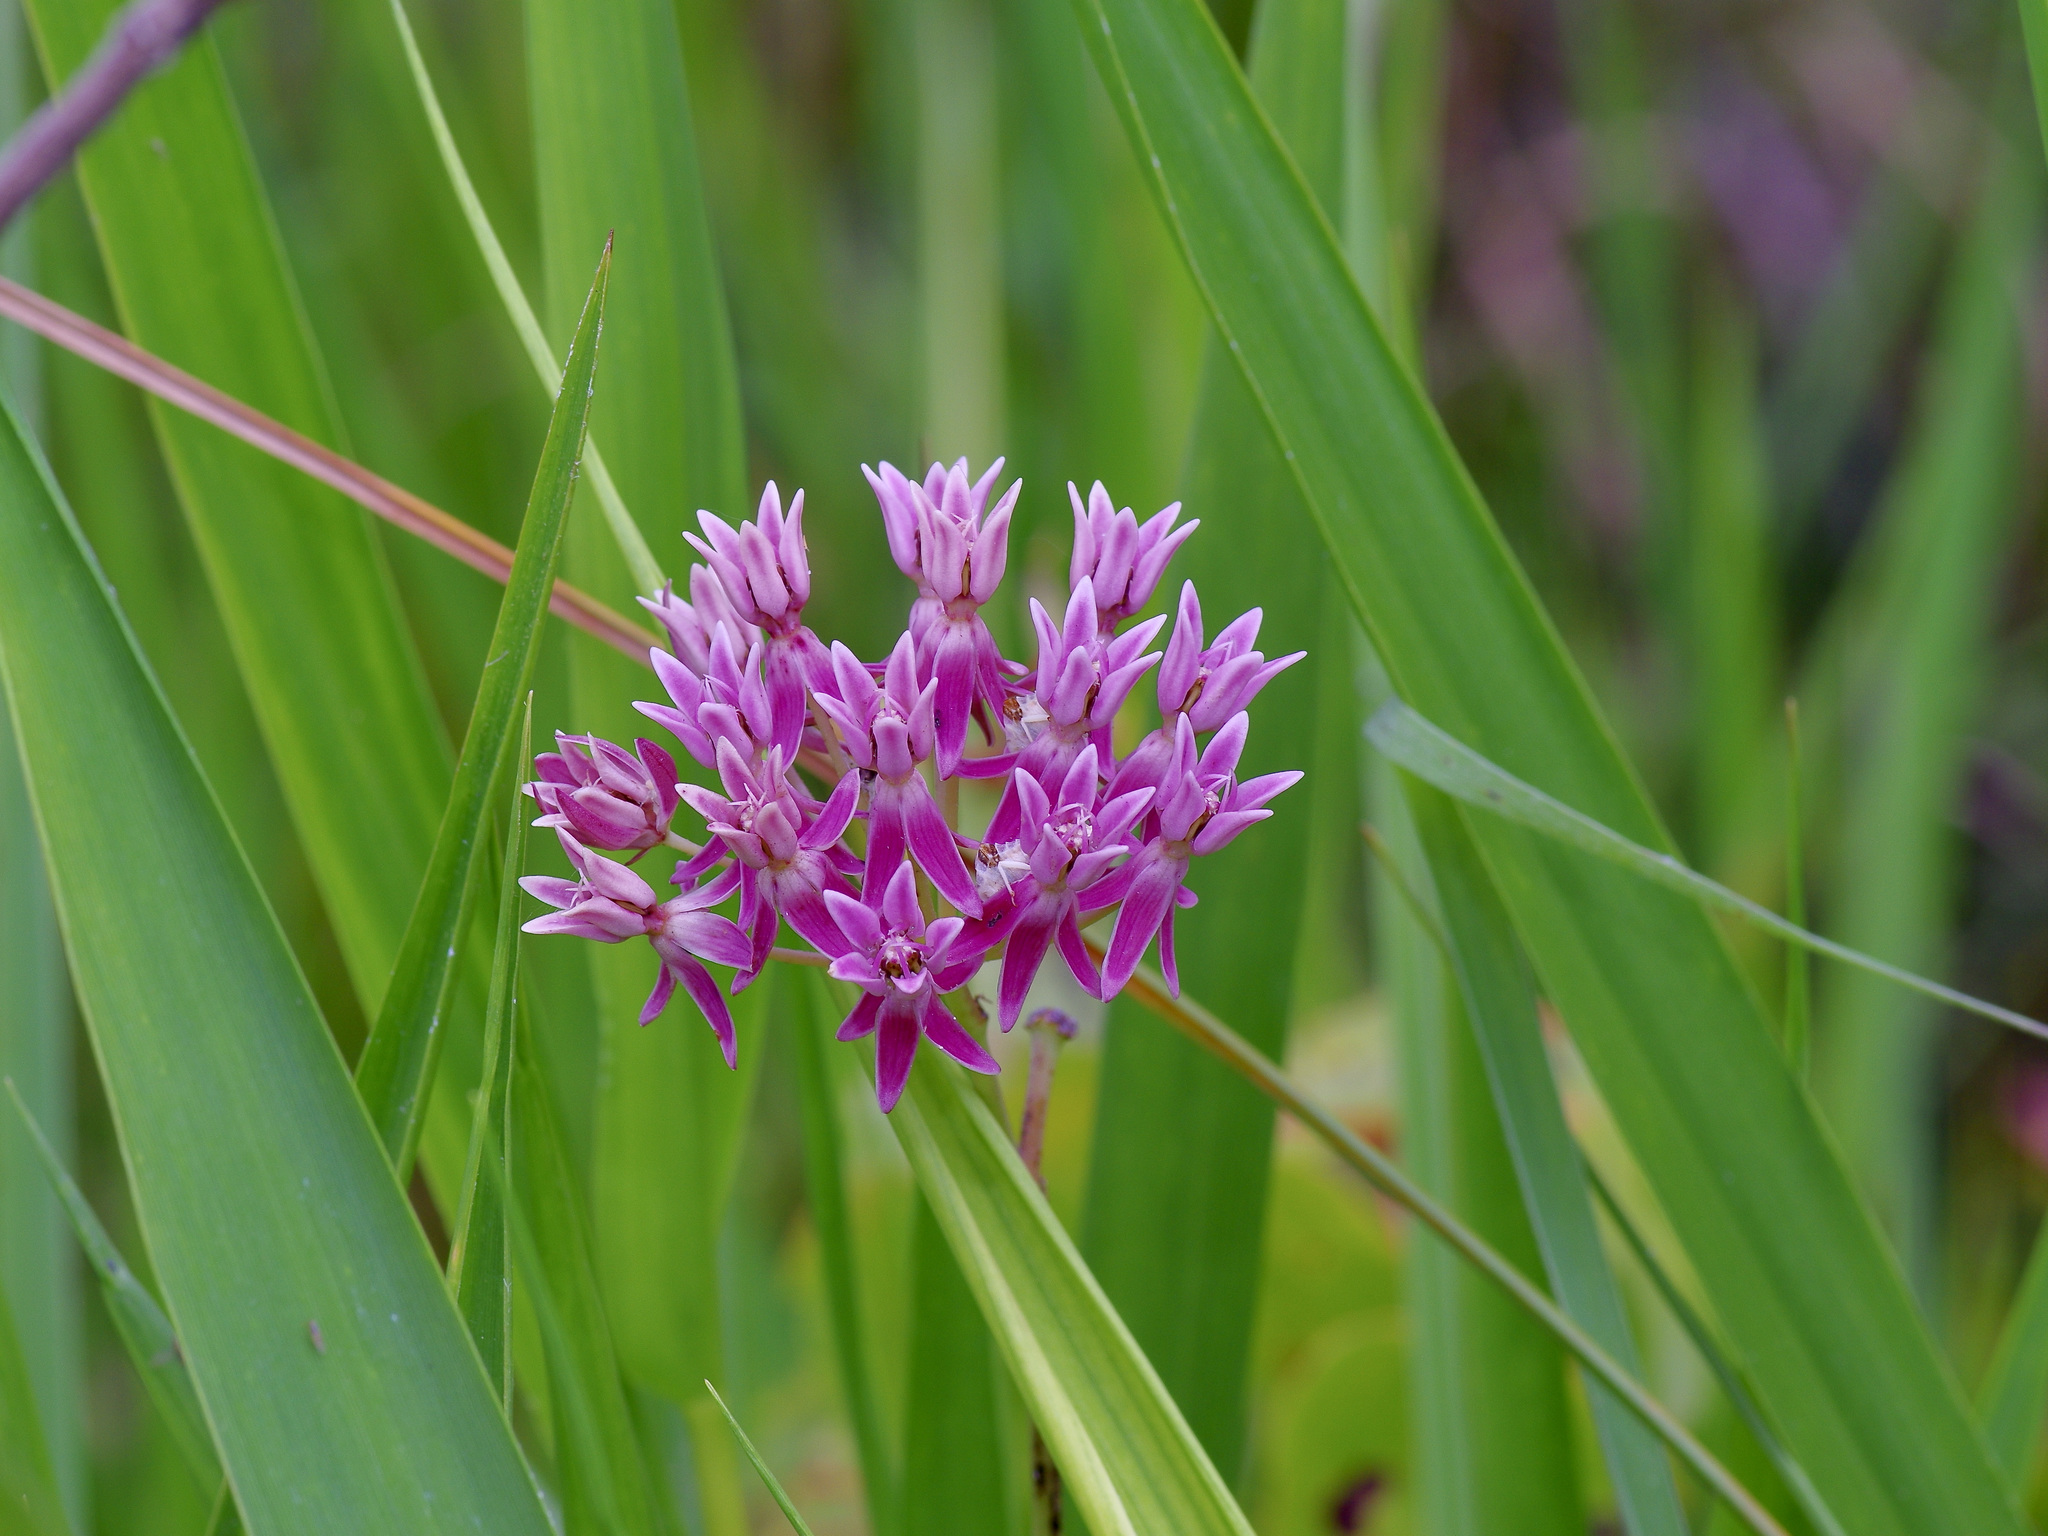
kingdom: Plantae
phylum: Tracheophyta
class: Magnoliopsida
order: Gentianales
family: Apocynaceae
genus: Asclepias
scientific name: Asclepias rubra
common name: Red milkweed
